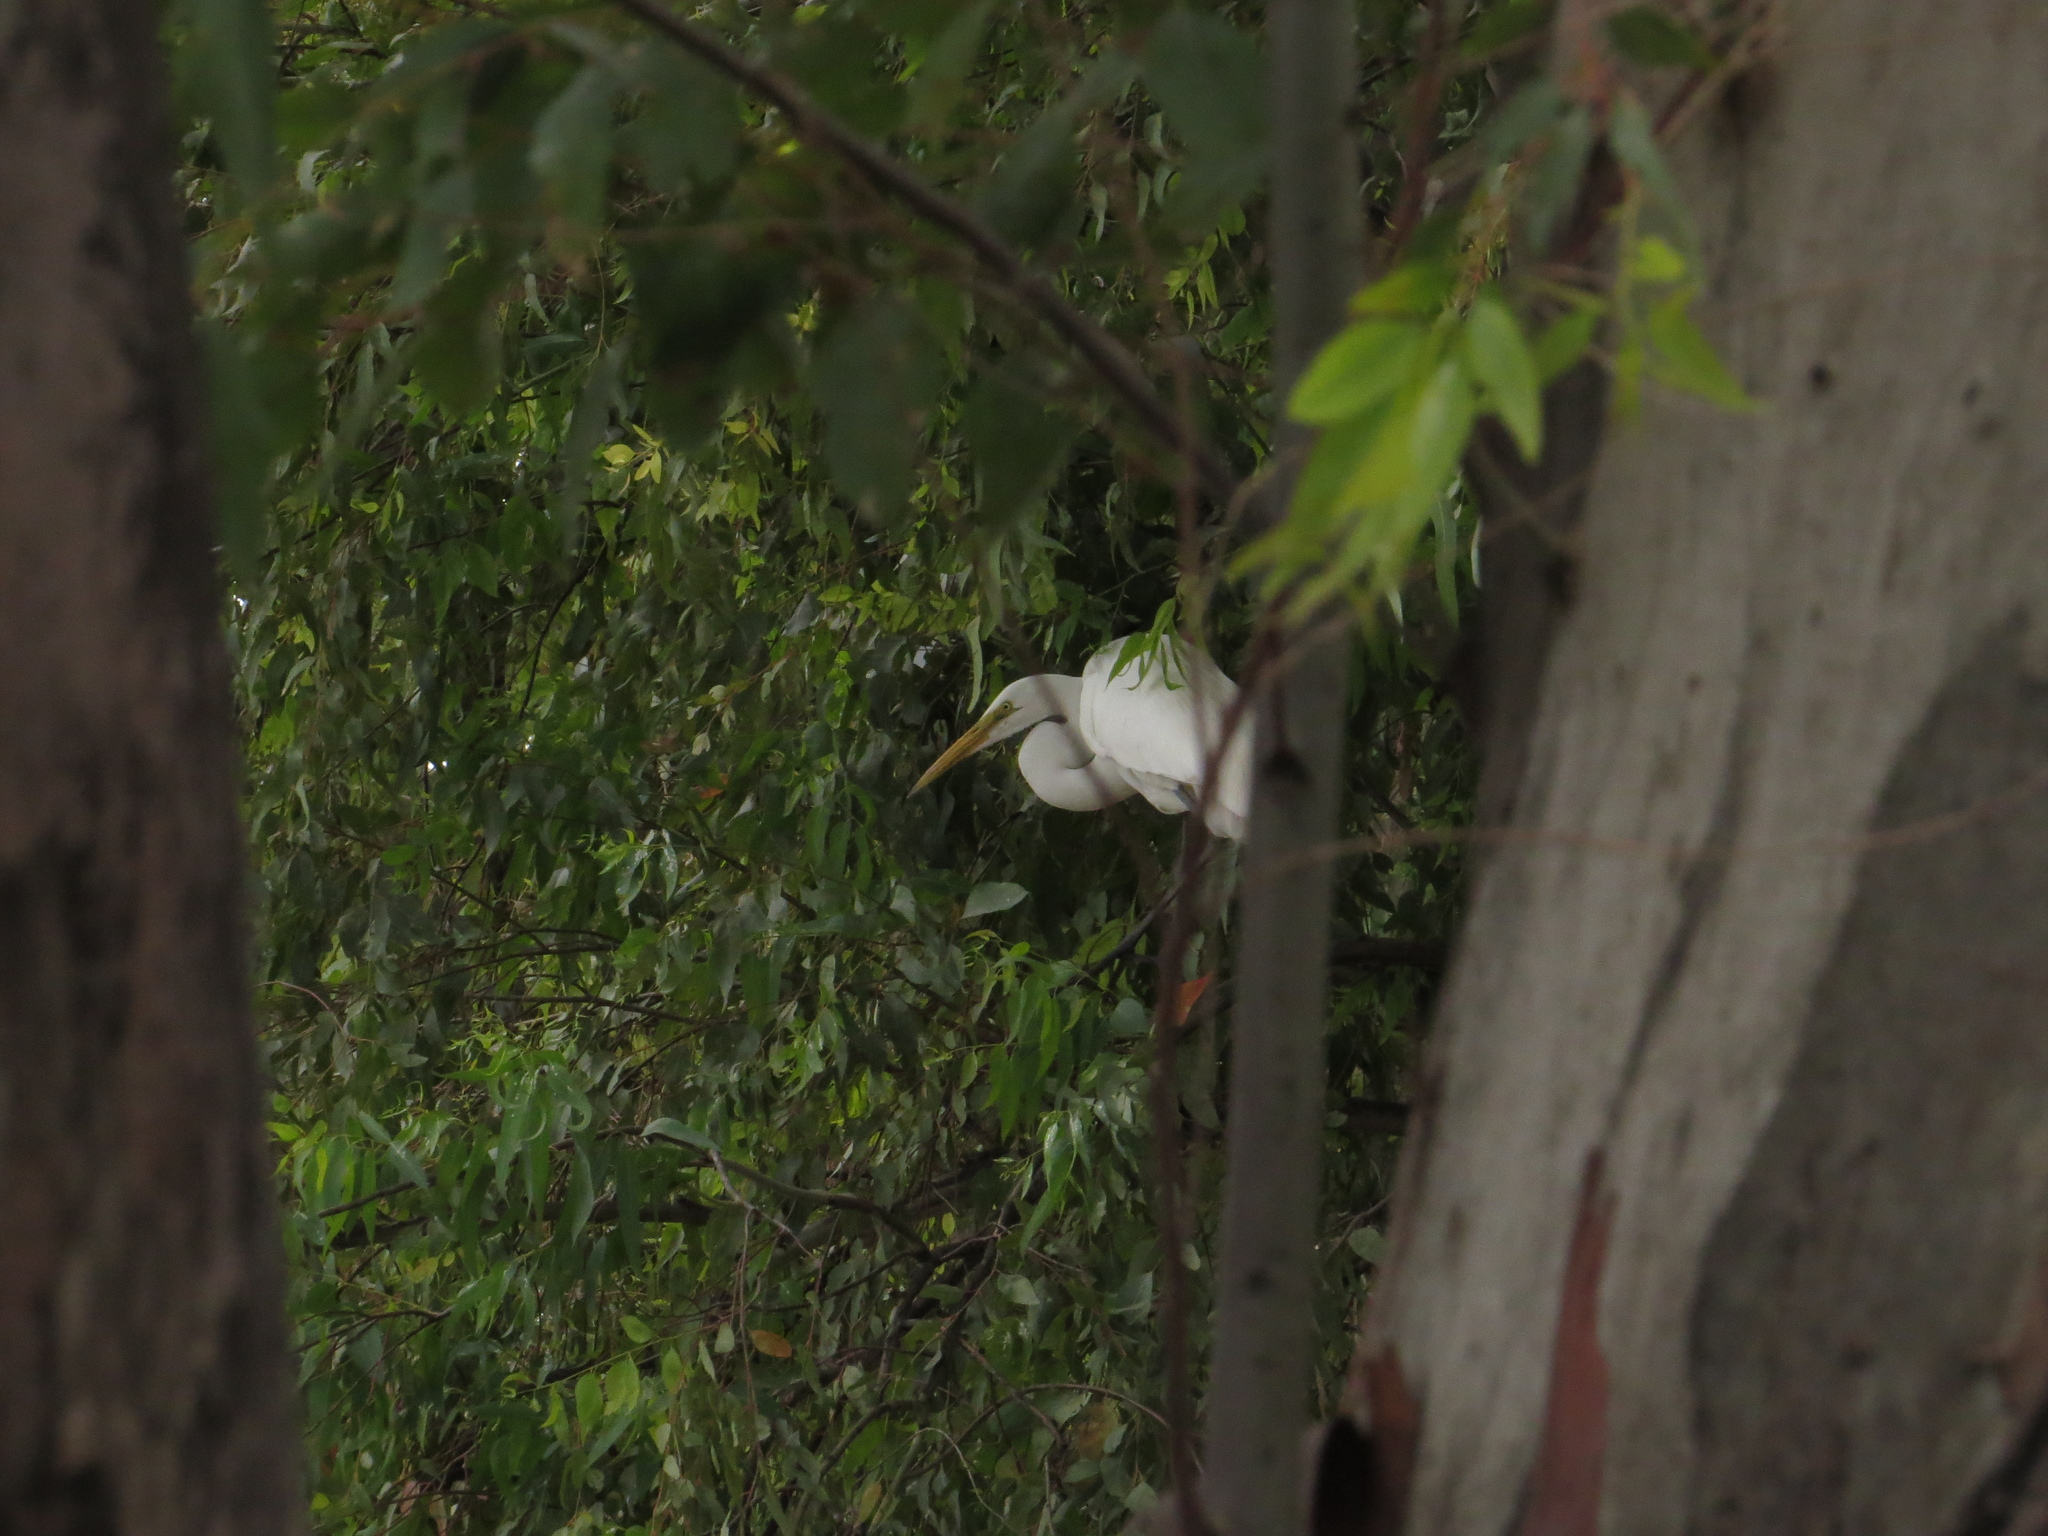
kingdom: Animalia
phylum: Chordata
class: Aves
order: Pelecaniformes
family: Ardeidae
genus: Ardea
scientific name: Ardea alba
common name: Great egret
